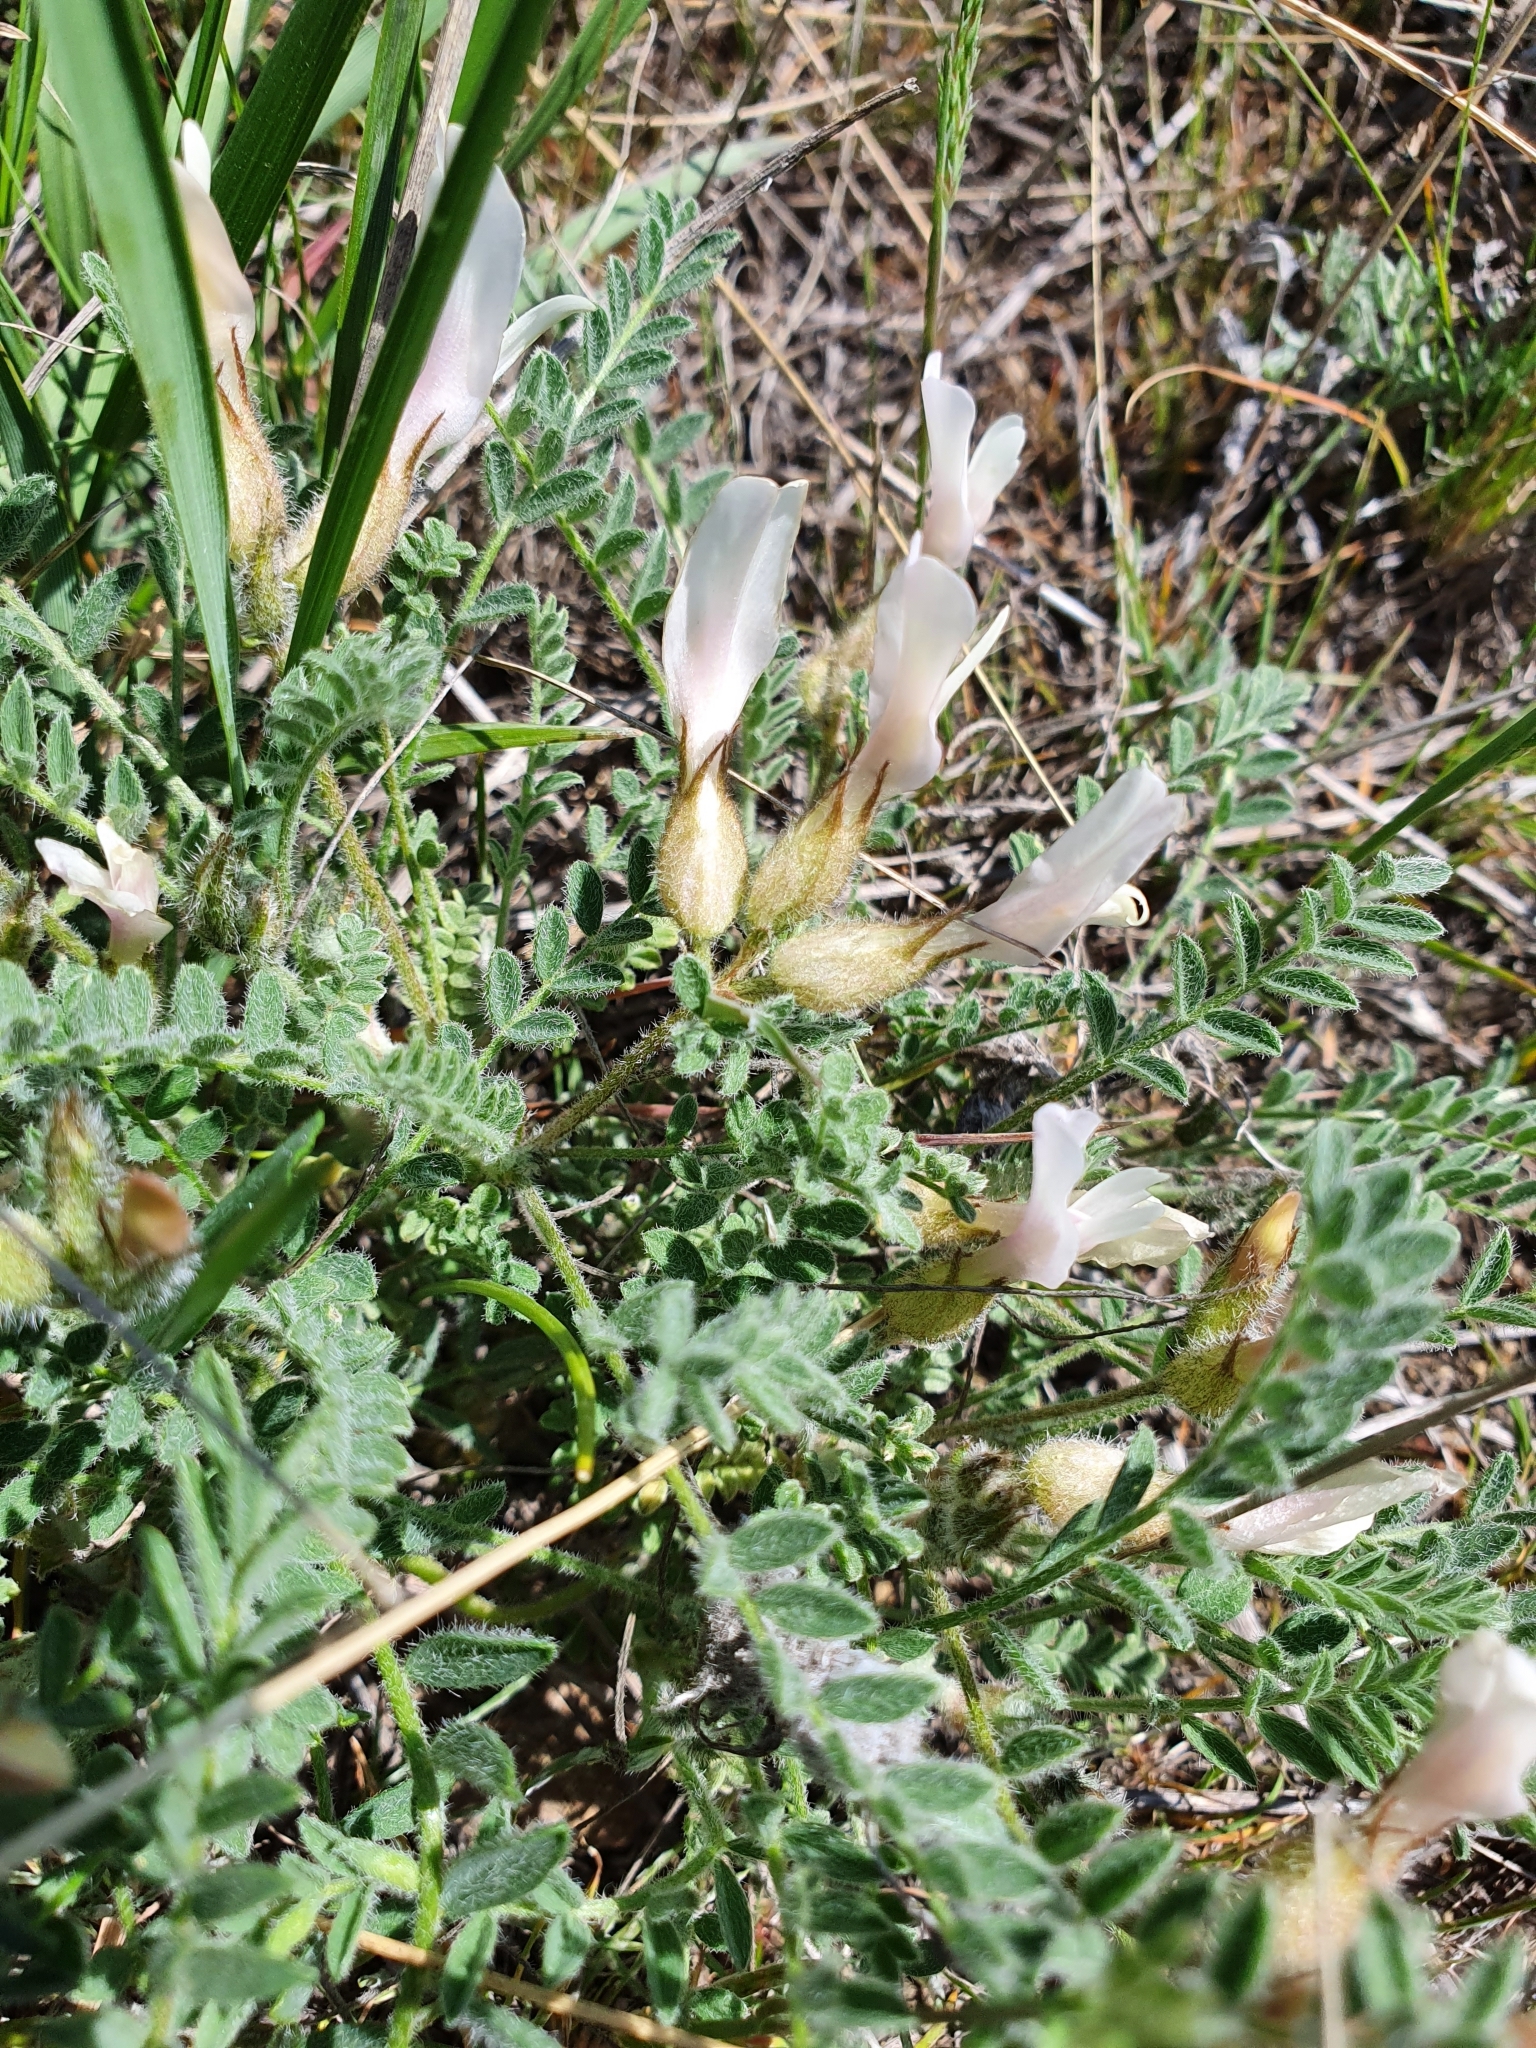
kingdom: Plantae
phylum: Tracheophyta
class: Magnoliopsida
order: Fabales
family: Fabaceae
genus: Astragalus
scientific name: Astragalus rupifragus
